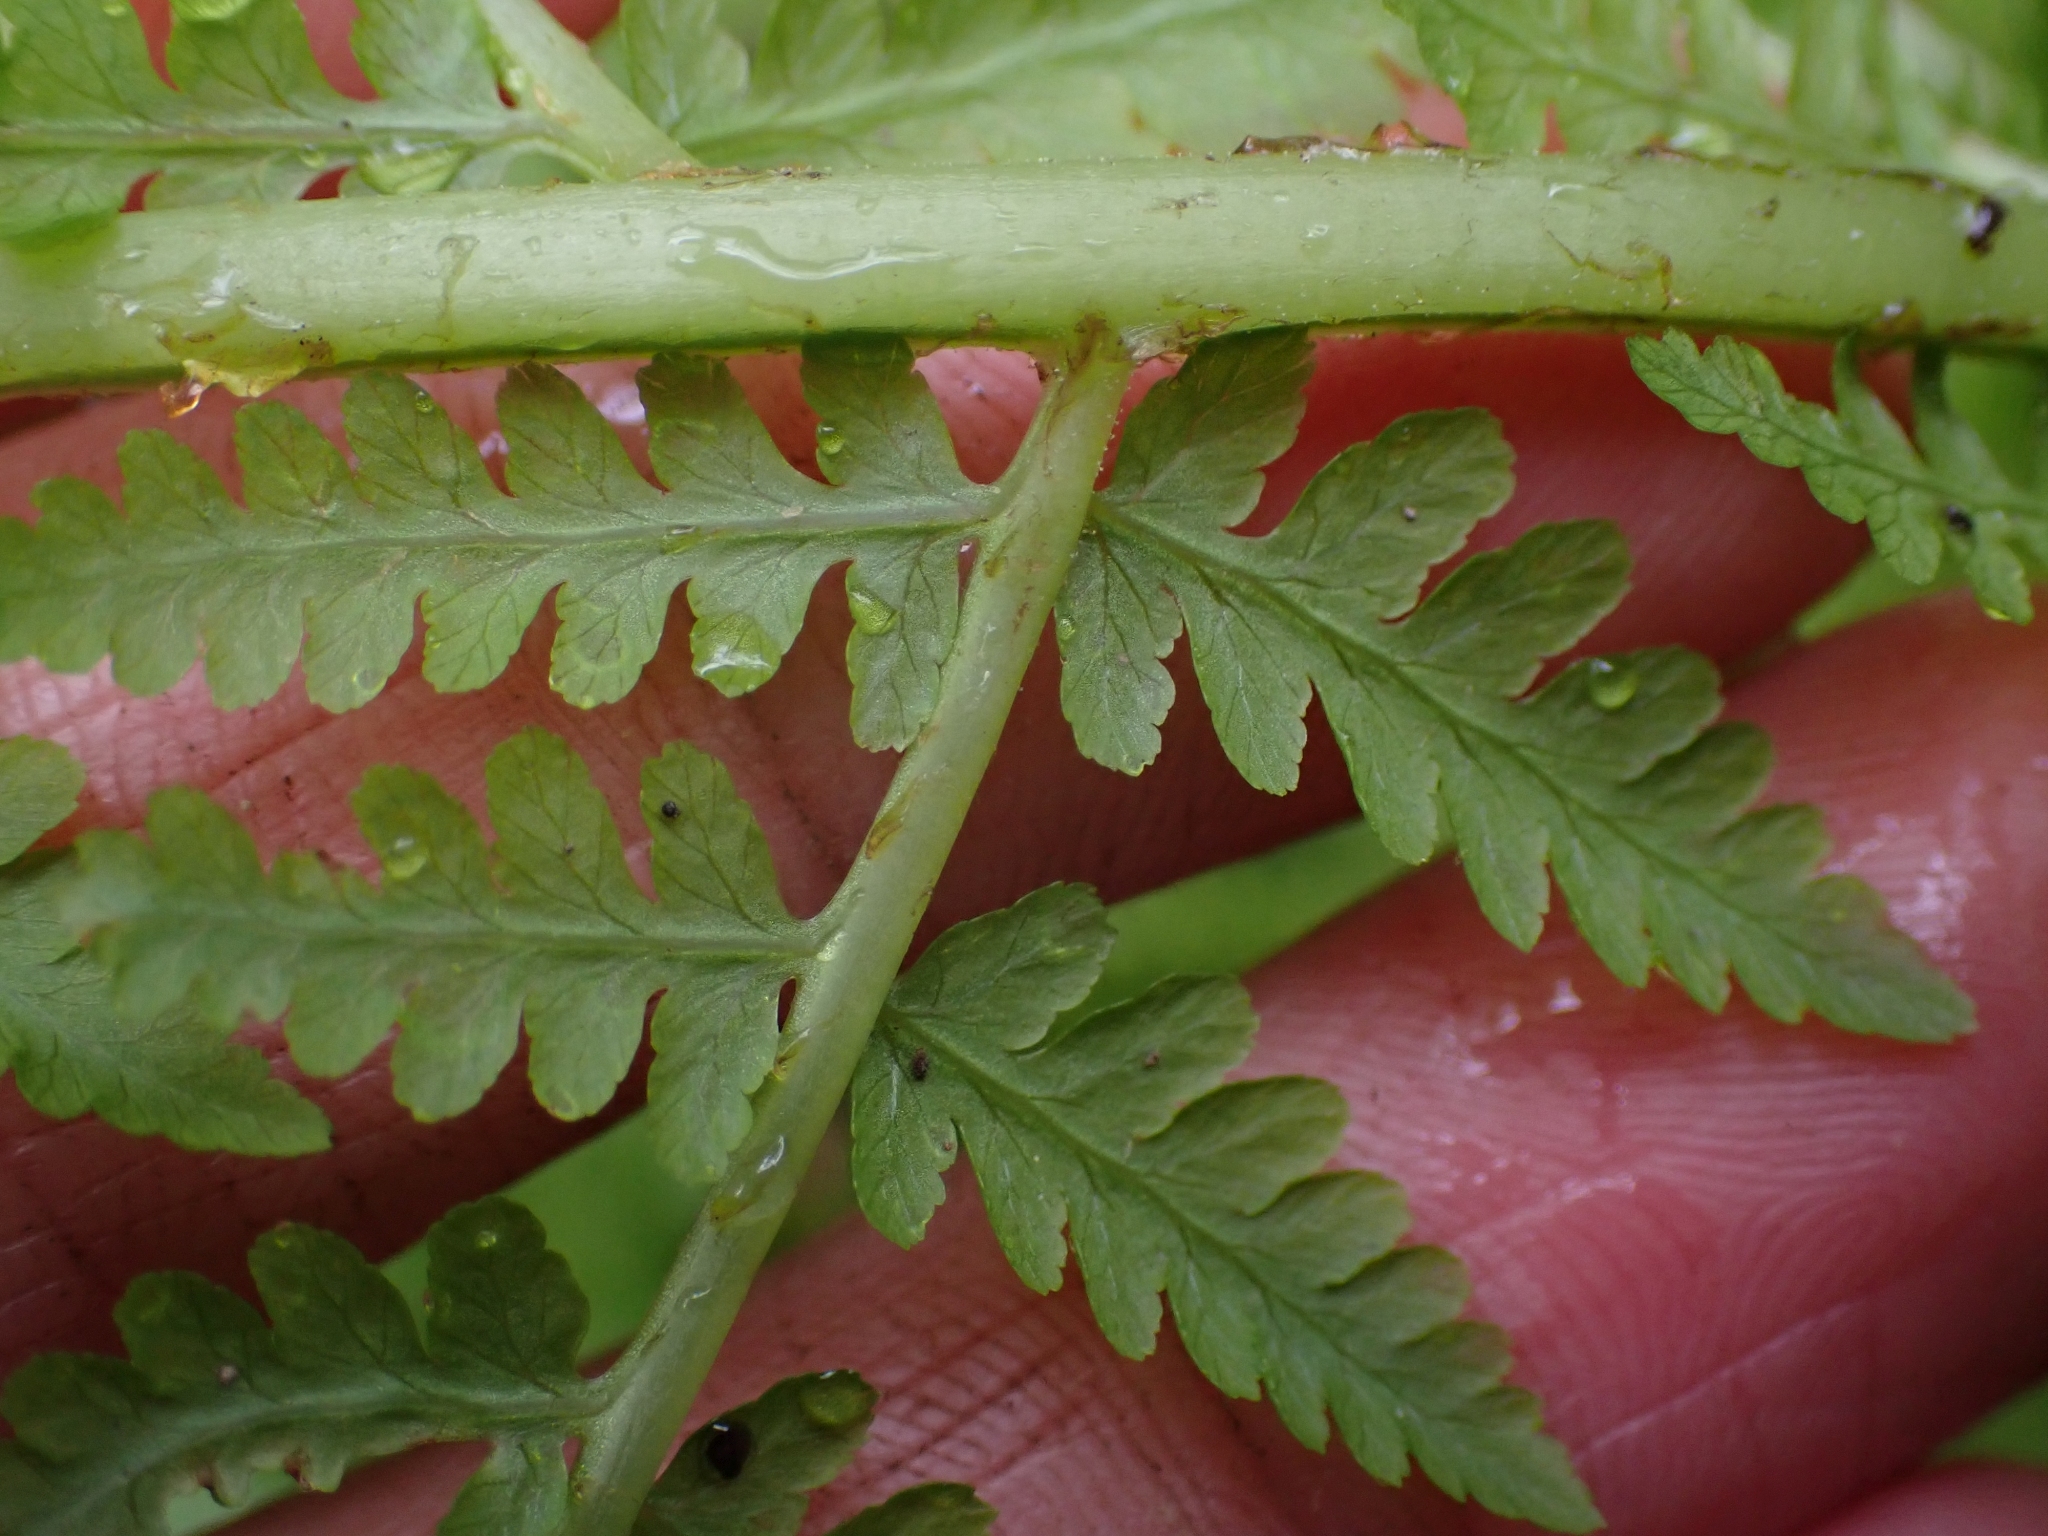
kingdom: Plantae
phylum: Tracheophyta
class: Polypodiopsida
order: Polypodiales
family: Athyriaceae
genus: Athyrium
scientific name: Athyrium filix-femina
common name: Lady fern
